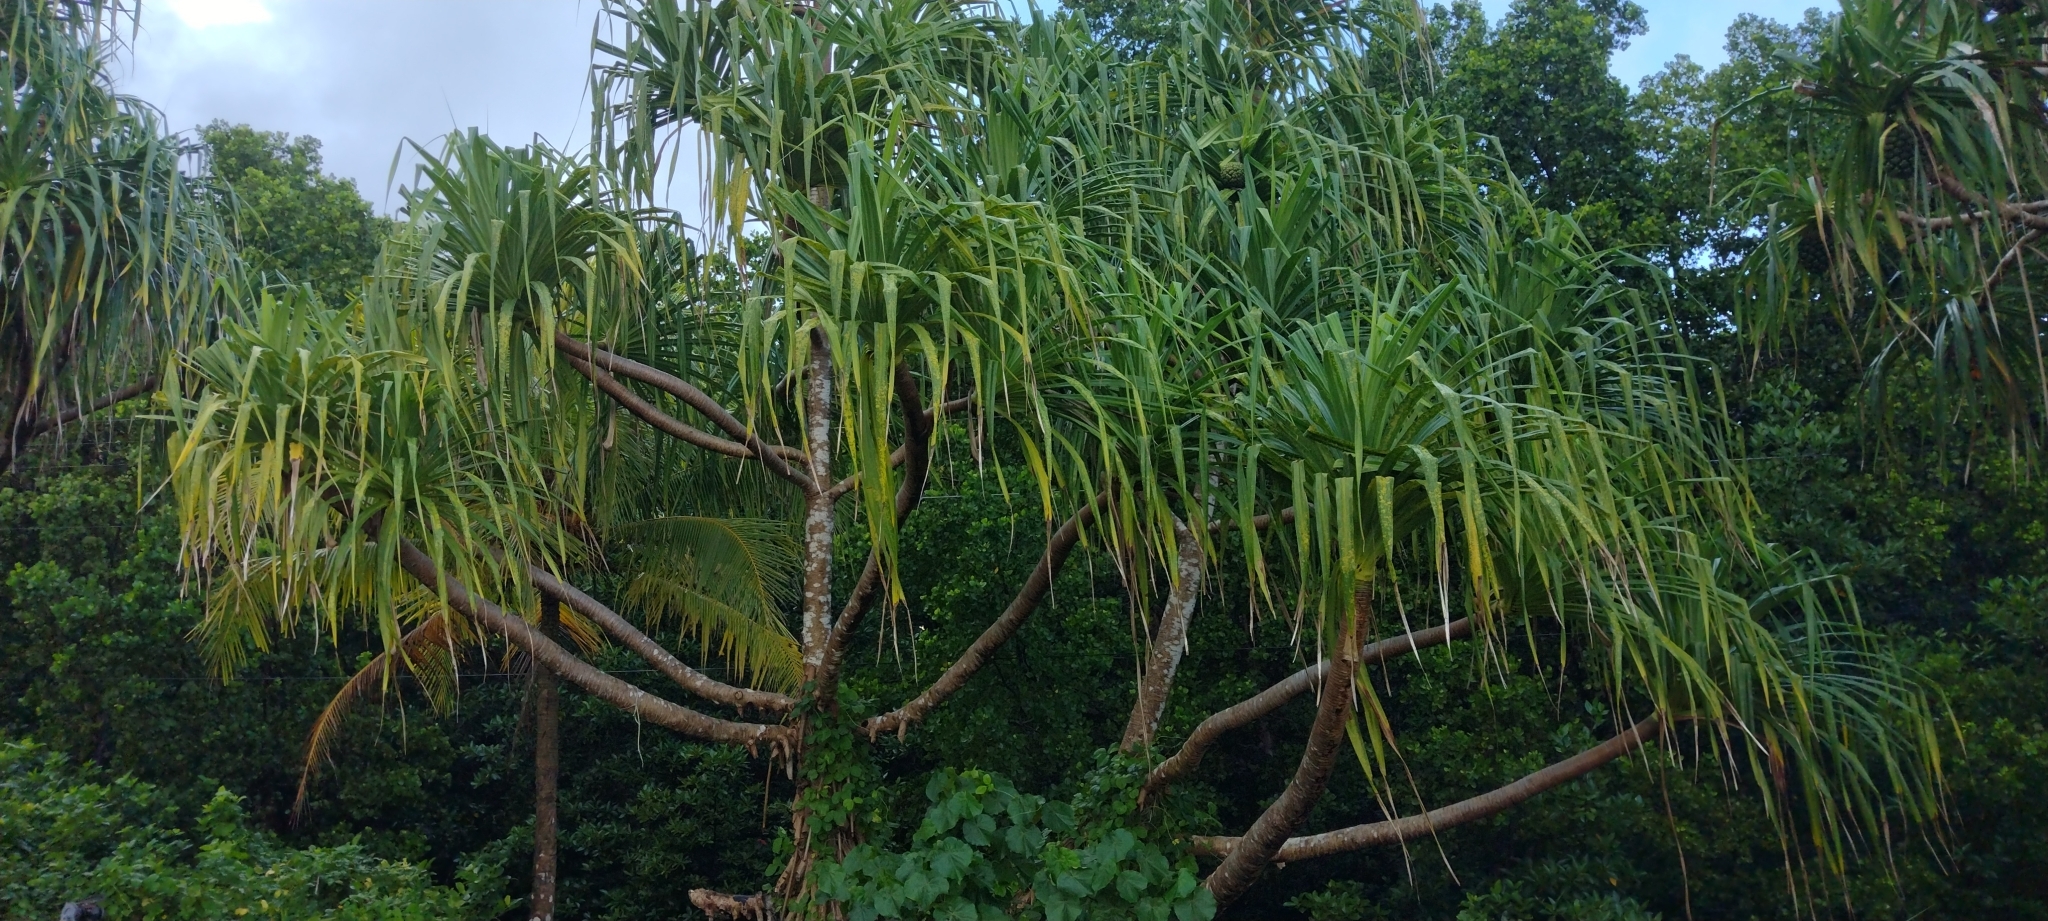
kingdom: Plantae
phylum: Tracheophyta
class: Liliopsida
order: Pandanales
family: Pandanaceae
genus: Pandanus
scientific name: Pandanus tectorius
